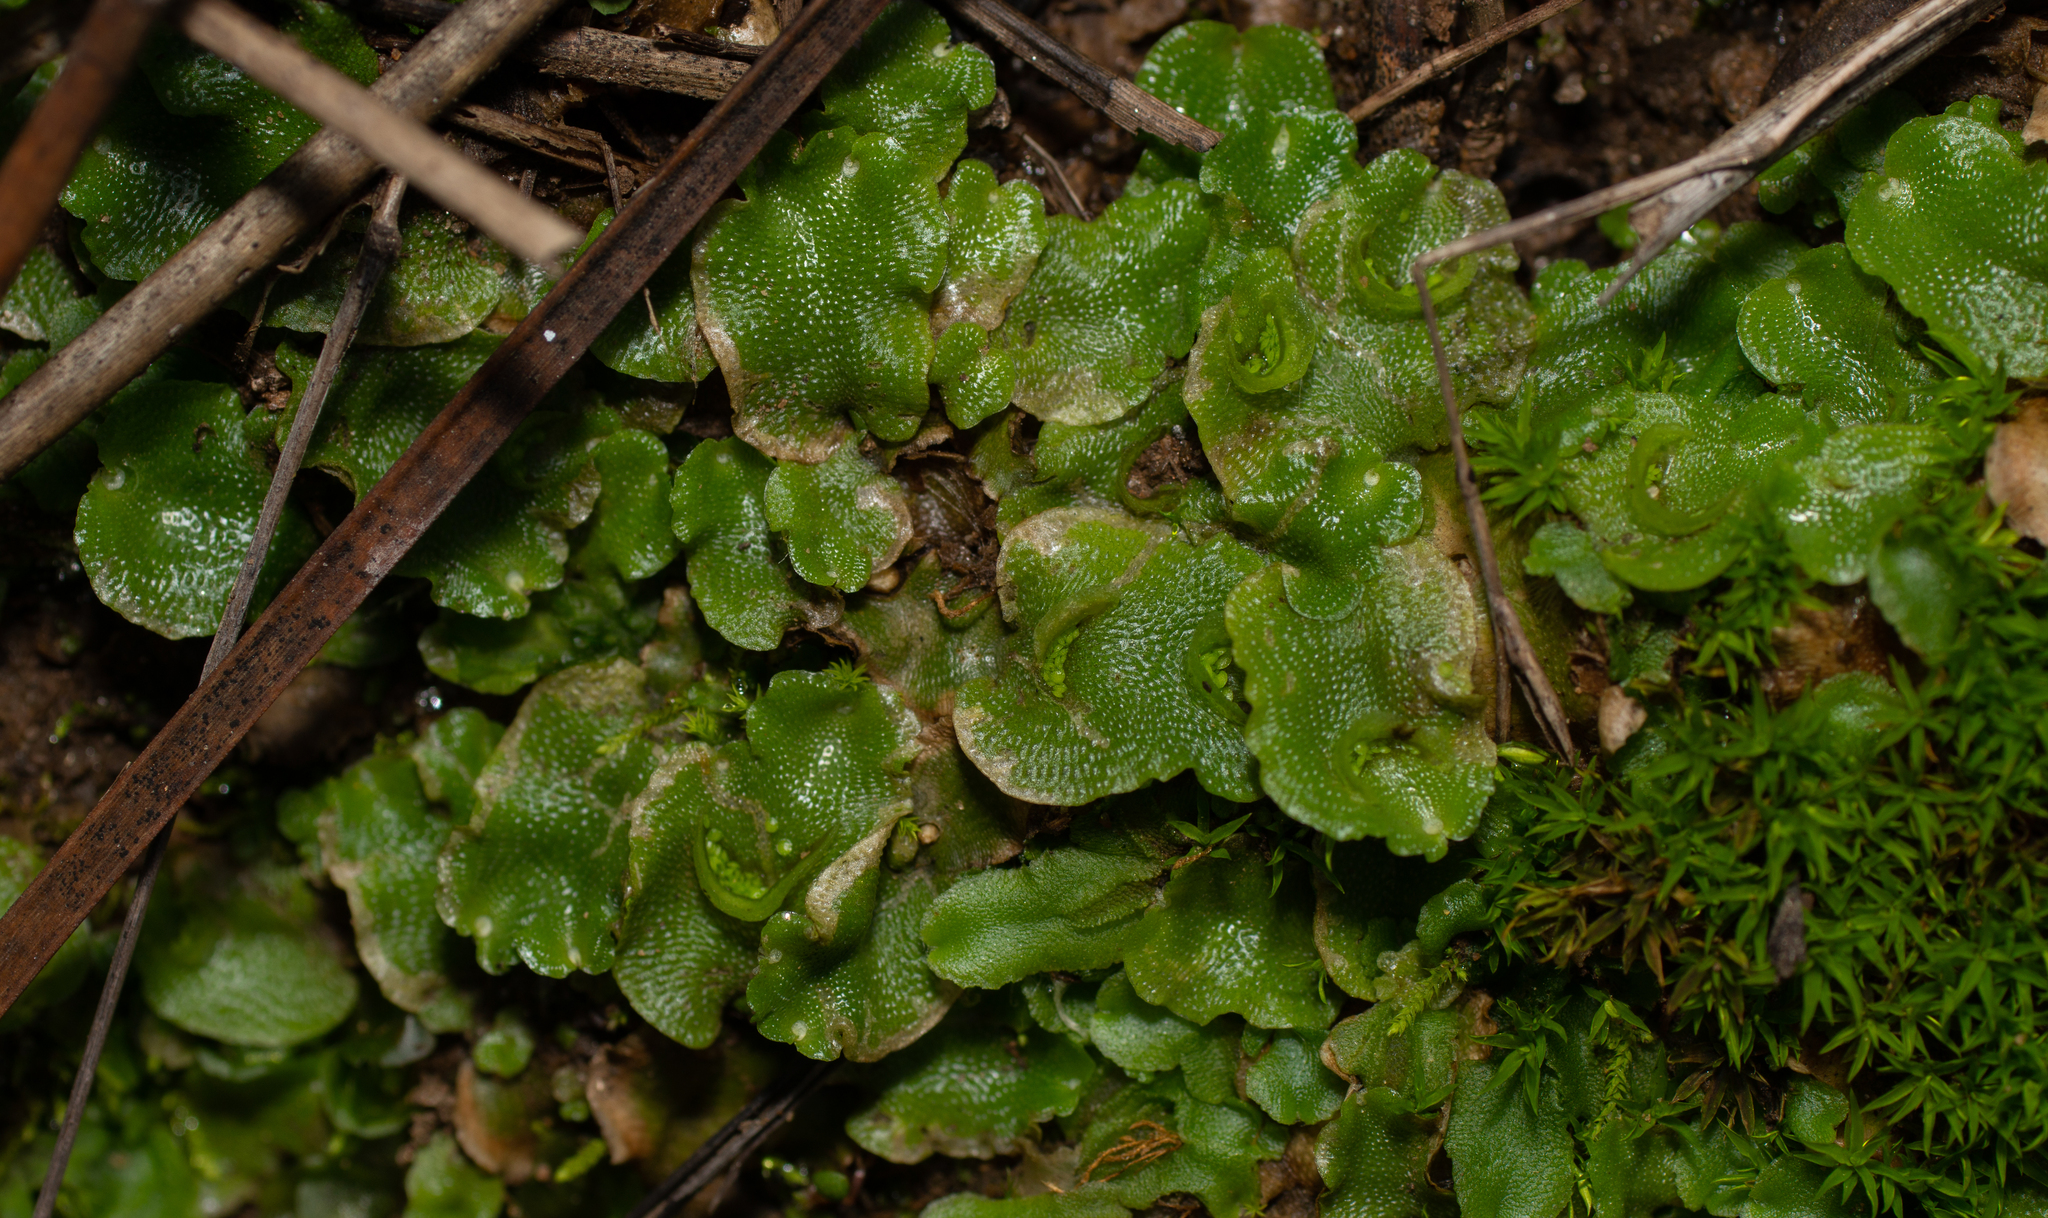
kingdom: Plantae
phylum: Marchantiophyta
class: Marchantiopsida
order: Lunulariales
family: Lunulariaceae
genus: Lunularia
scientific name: Lunularia cruciata
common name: Crescent-cup liverwort
